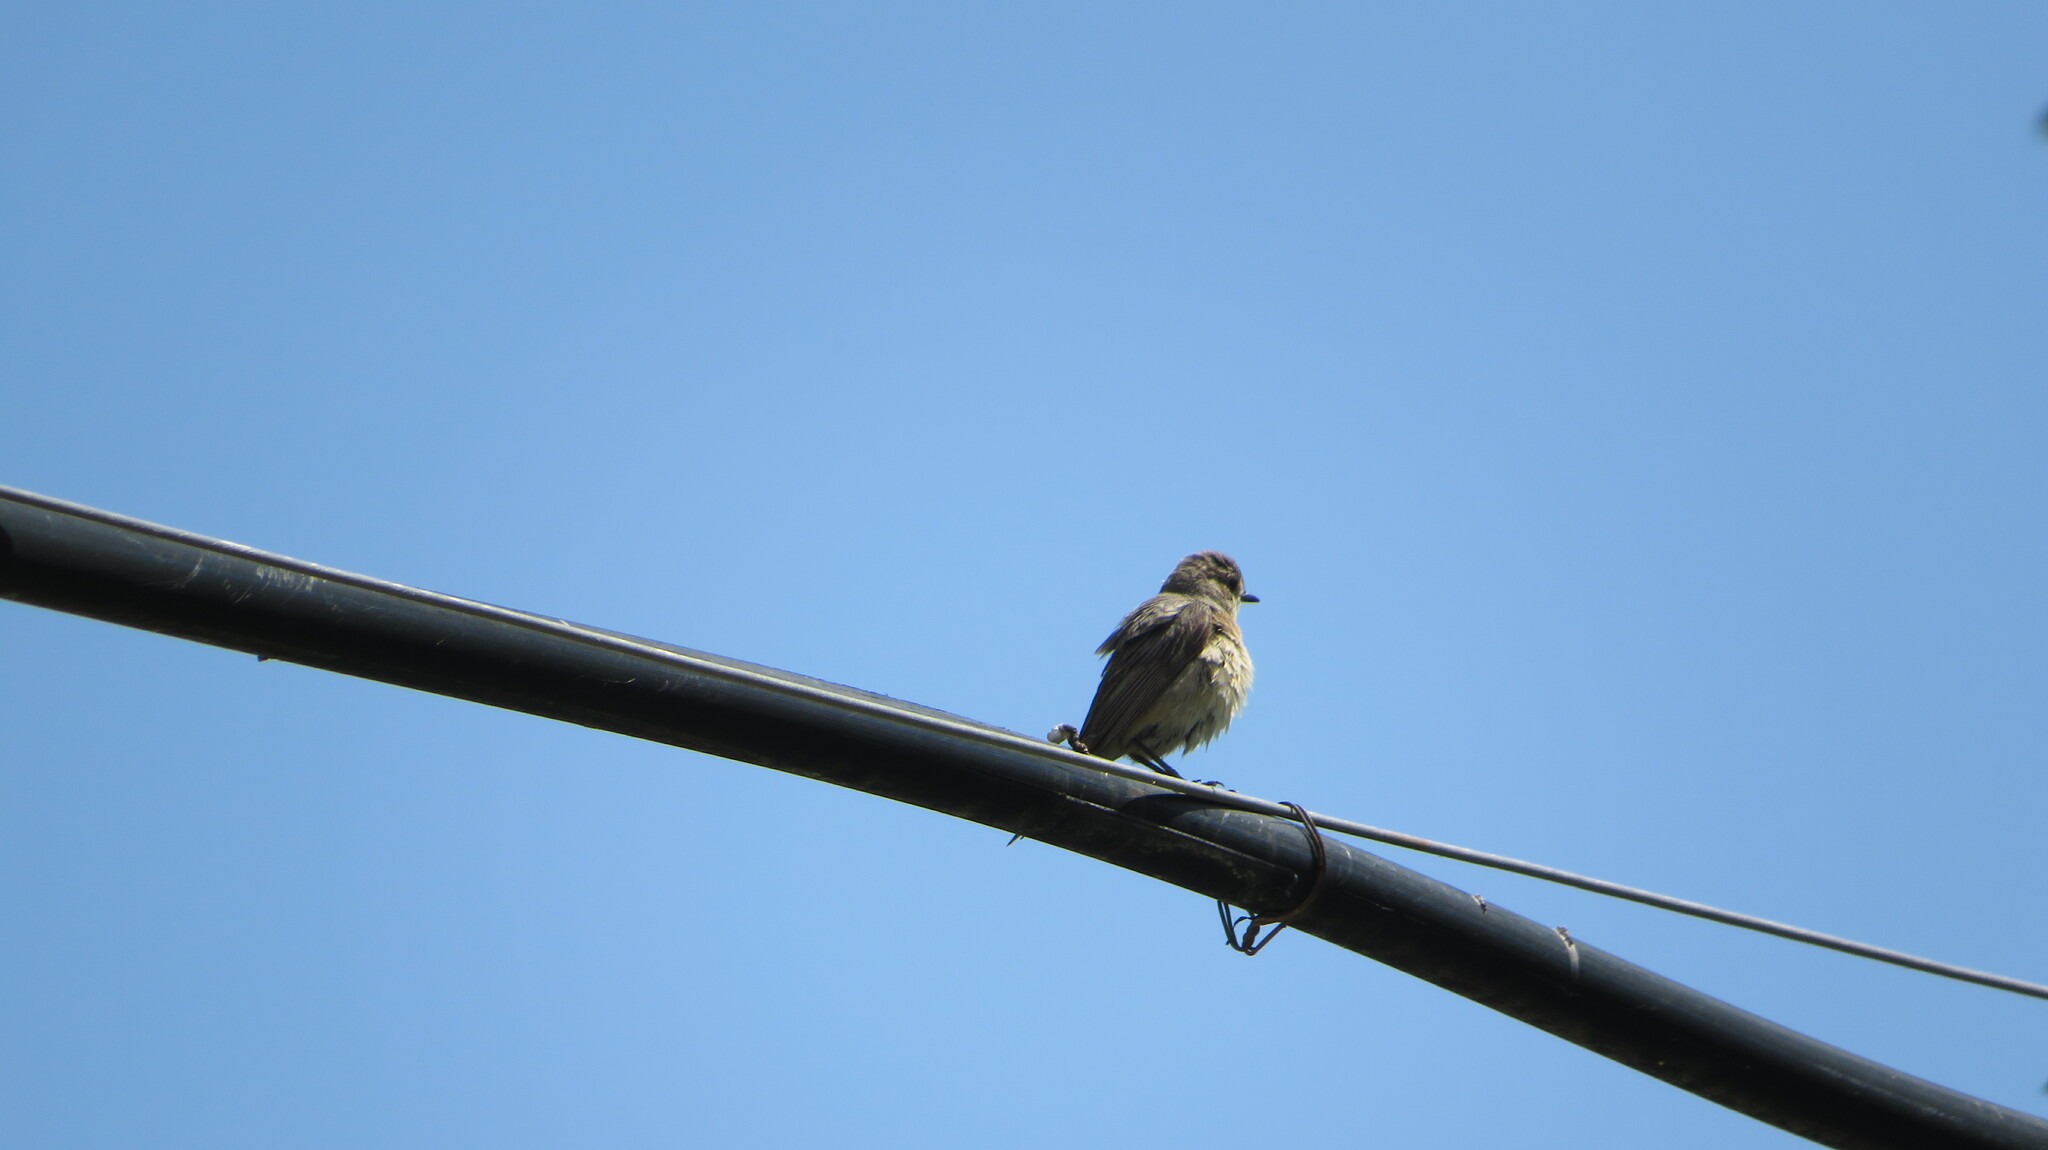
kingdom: Animalia
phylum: Chordata
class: Aves
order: Passeriformes
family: Muscicapidae
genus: Phoenicurus
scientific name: Phoenicurus phoenicurus
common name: Common redstart
